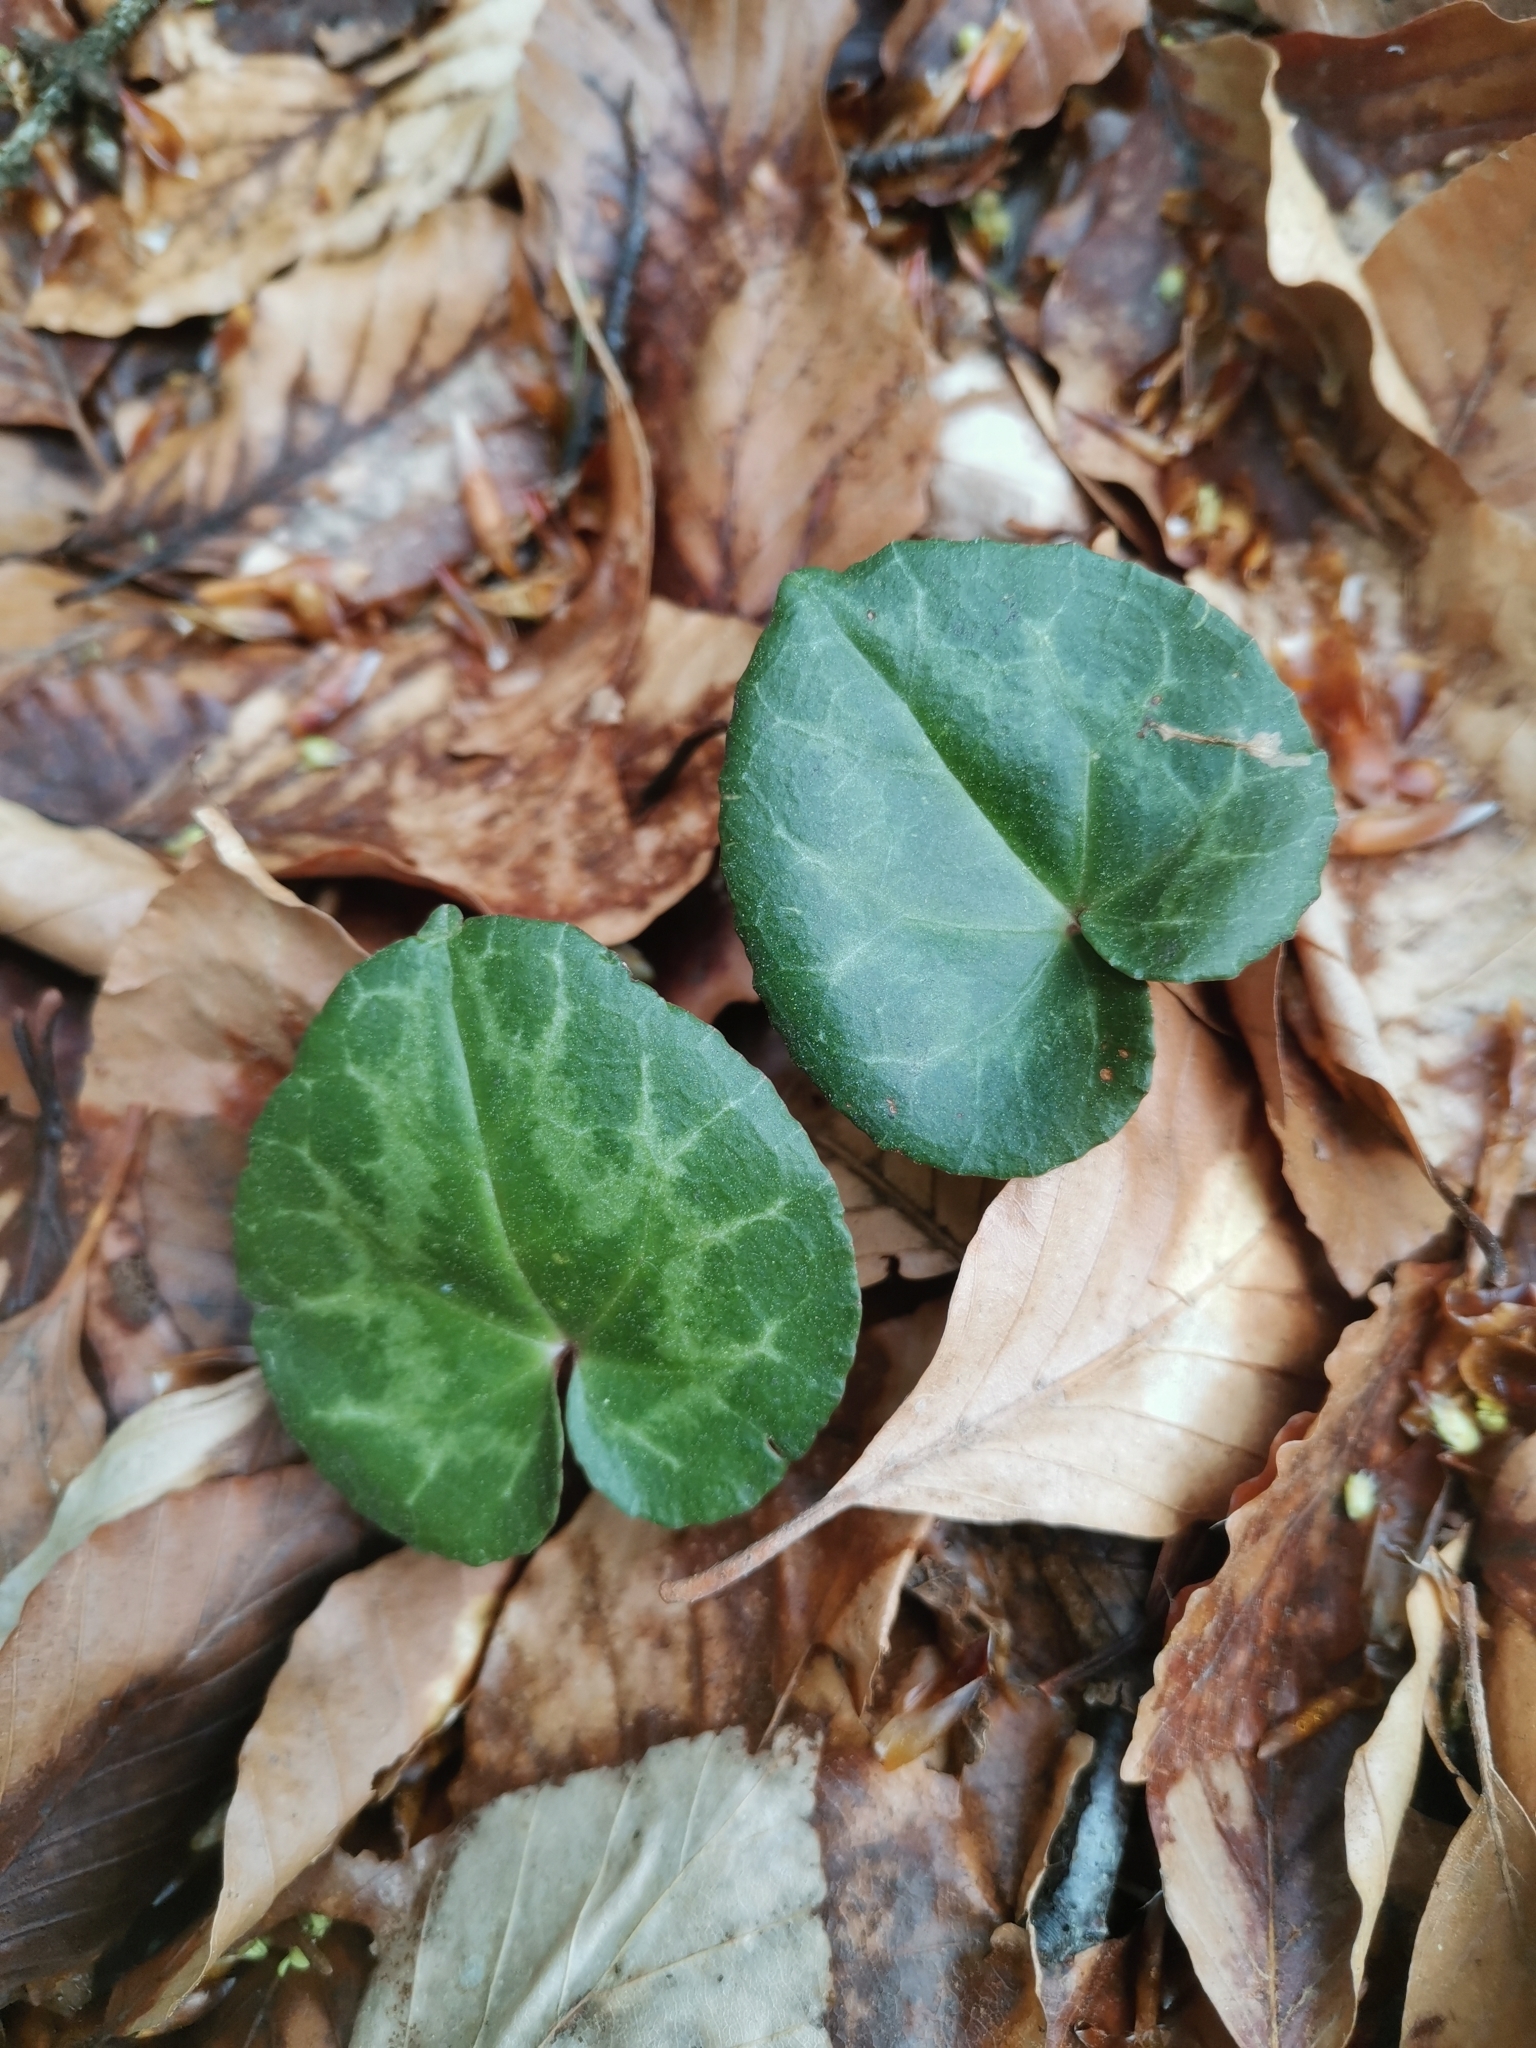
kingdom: Plantae
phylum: Tracheophyta
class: Magnoliopsida
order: Ericales
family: Primulaceae
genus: Cyclamen
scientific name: Cyclamen purpurascens
